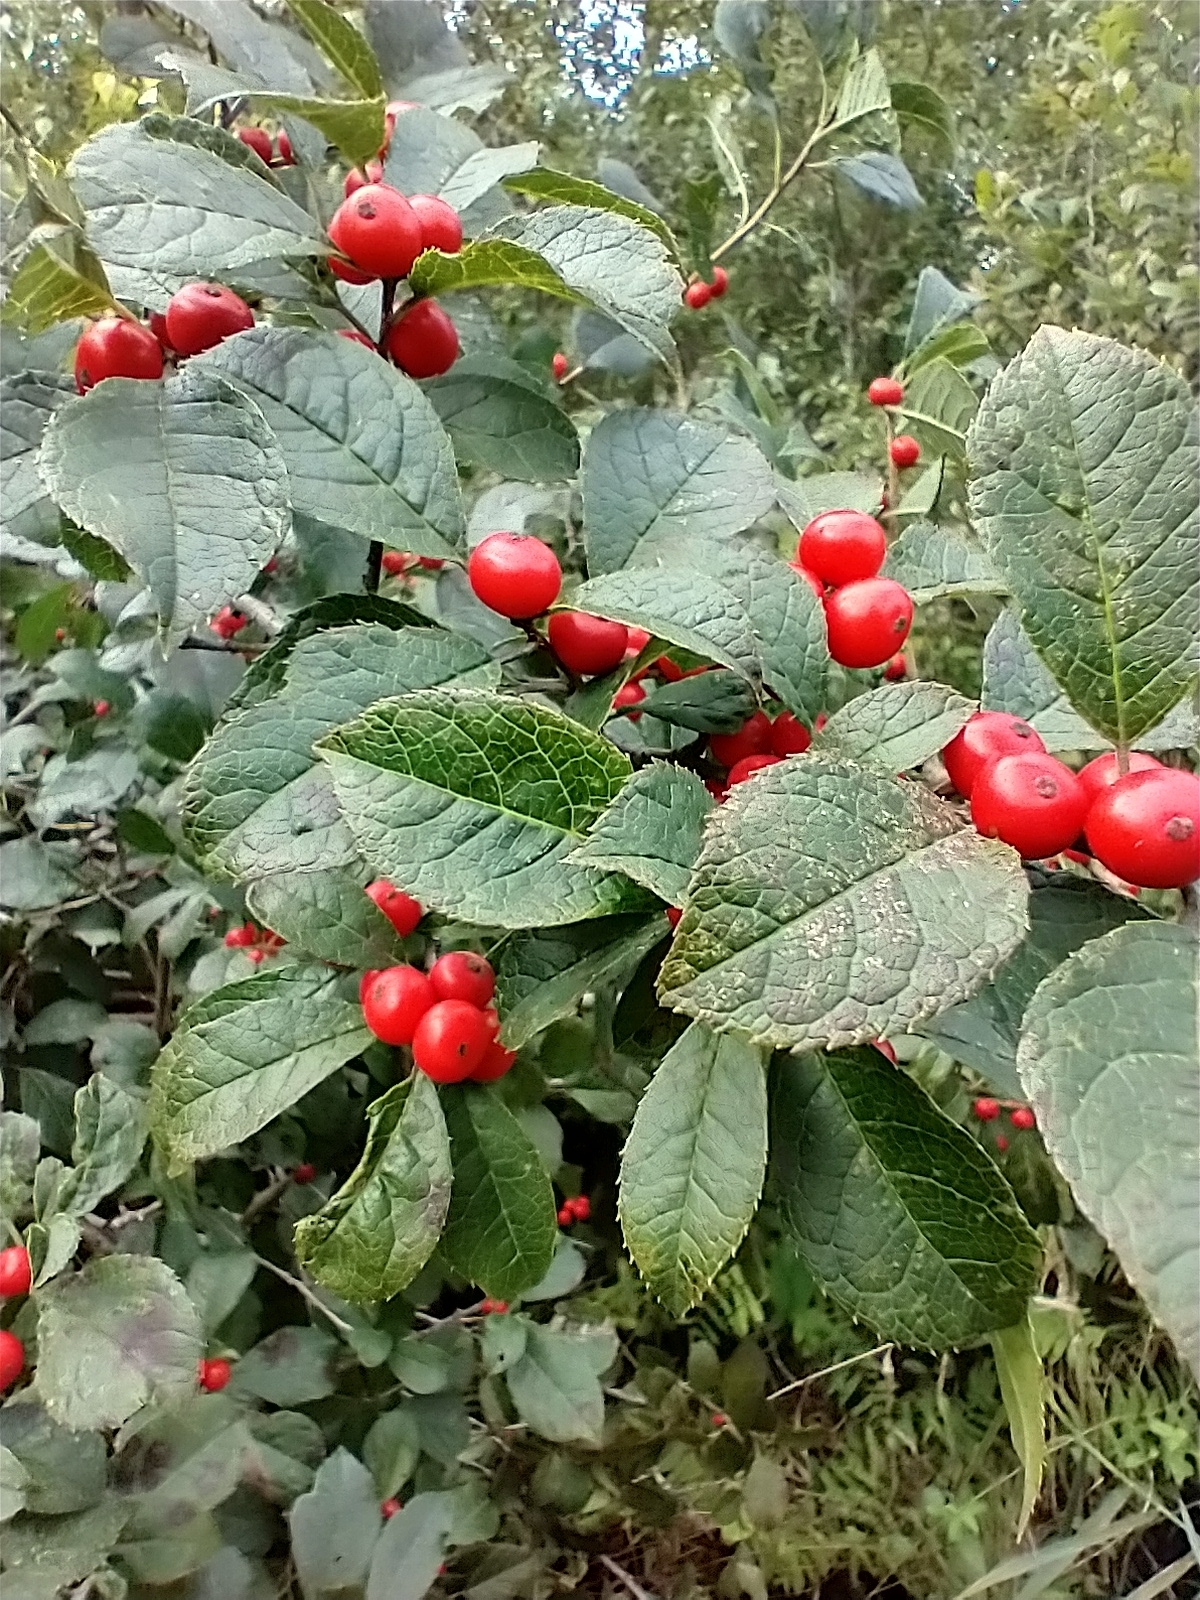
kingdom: Plantae
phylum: Tracheophyta
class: Magnoliopsida
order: Aquifoliales
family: Aquifoliaceae
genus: Ilex
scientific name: Ilex verticillata
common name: Virginia winterberry
